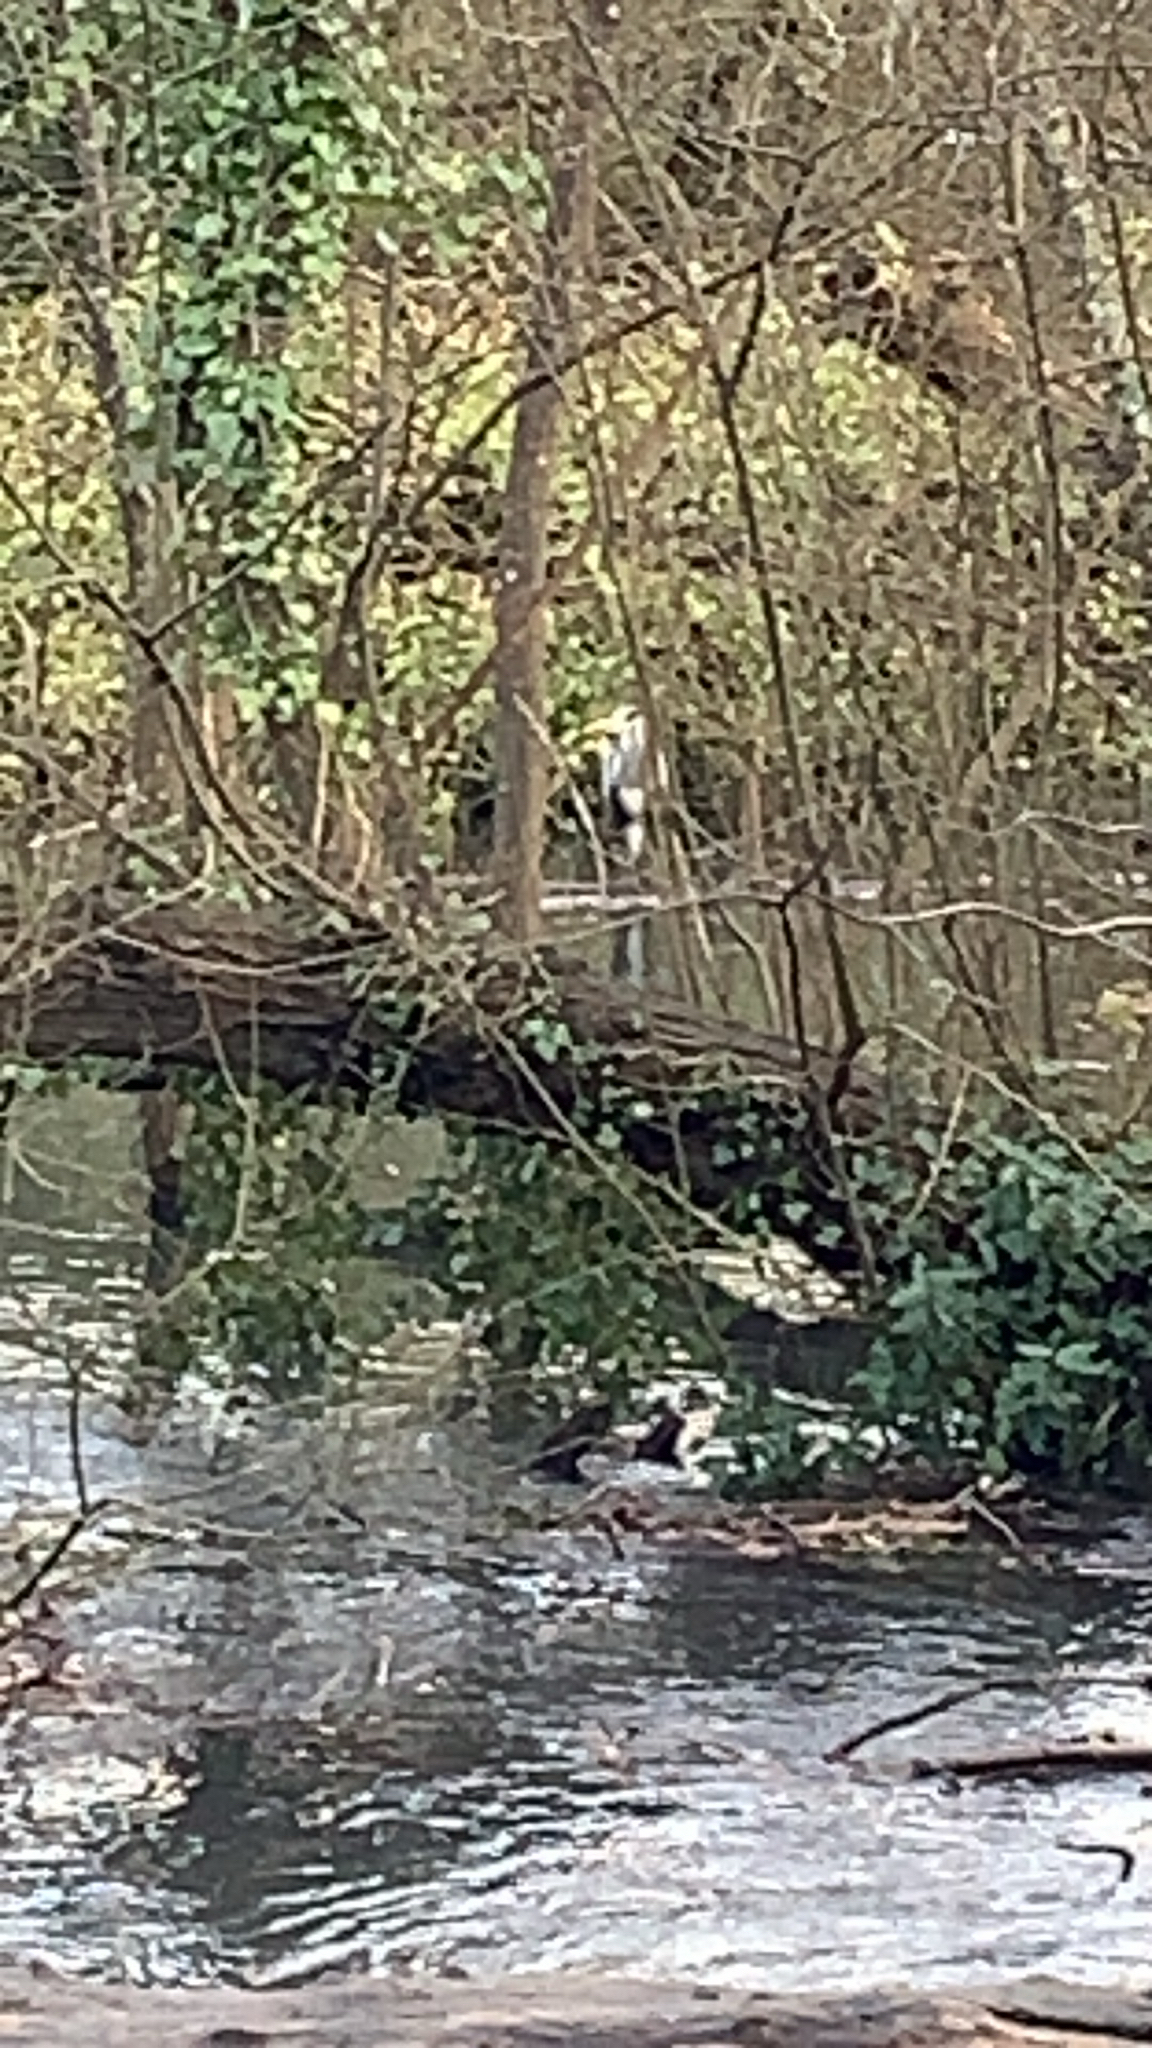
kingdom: Animalia
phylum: Chordata
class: Aves
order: Pelecaniformes
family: Ardeidae
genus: Ardea
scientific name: Ardea cinerea
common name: Grey heron
